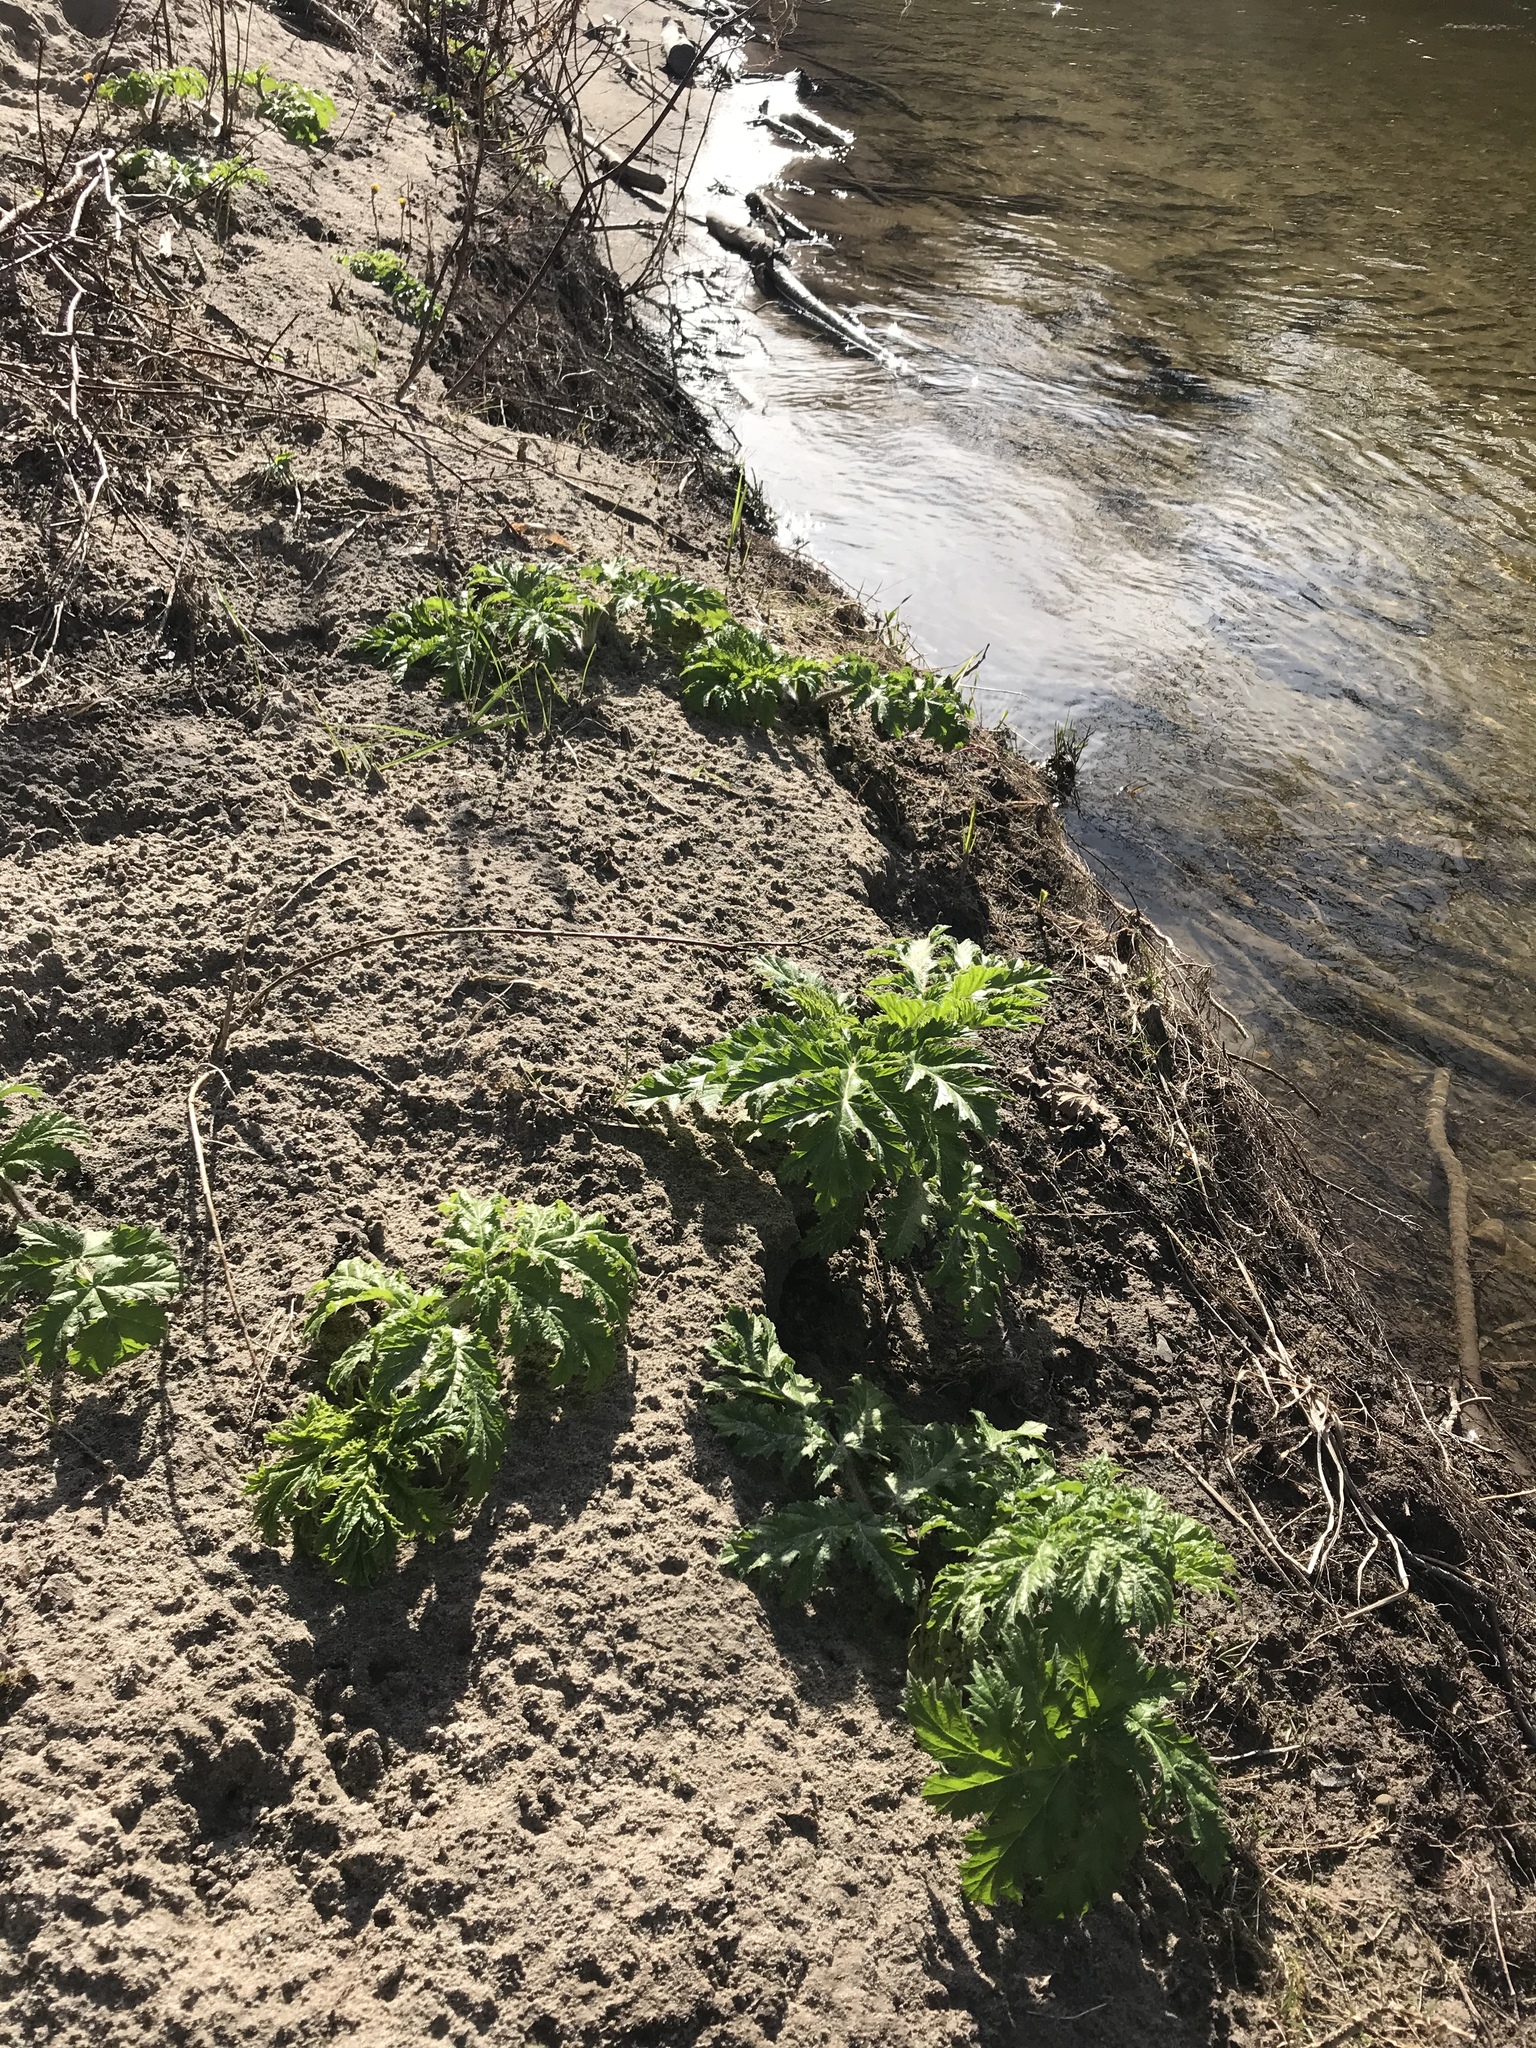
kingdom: Plantae
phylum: Tracheophyta
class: Magnoliopsida
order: Apiales
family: Apiaceae
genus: Heracleum
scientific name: Heracleum mantegazzianum
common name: Giant hogweed
